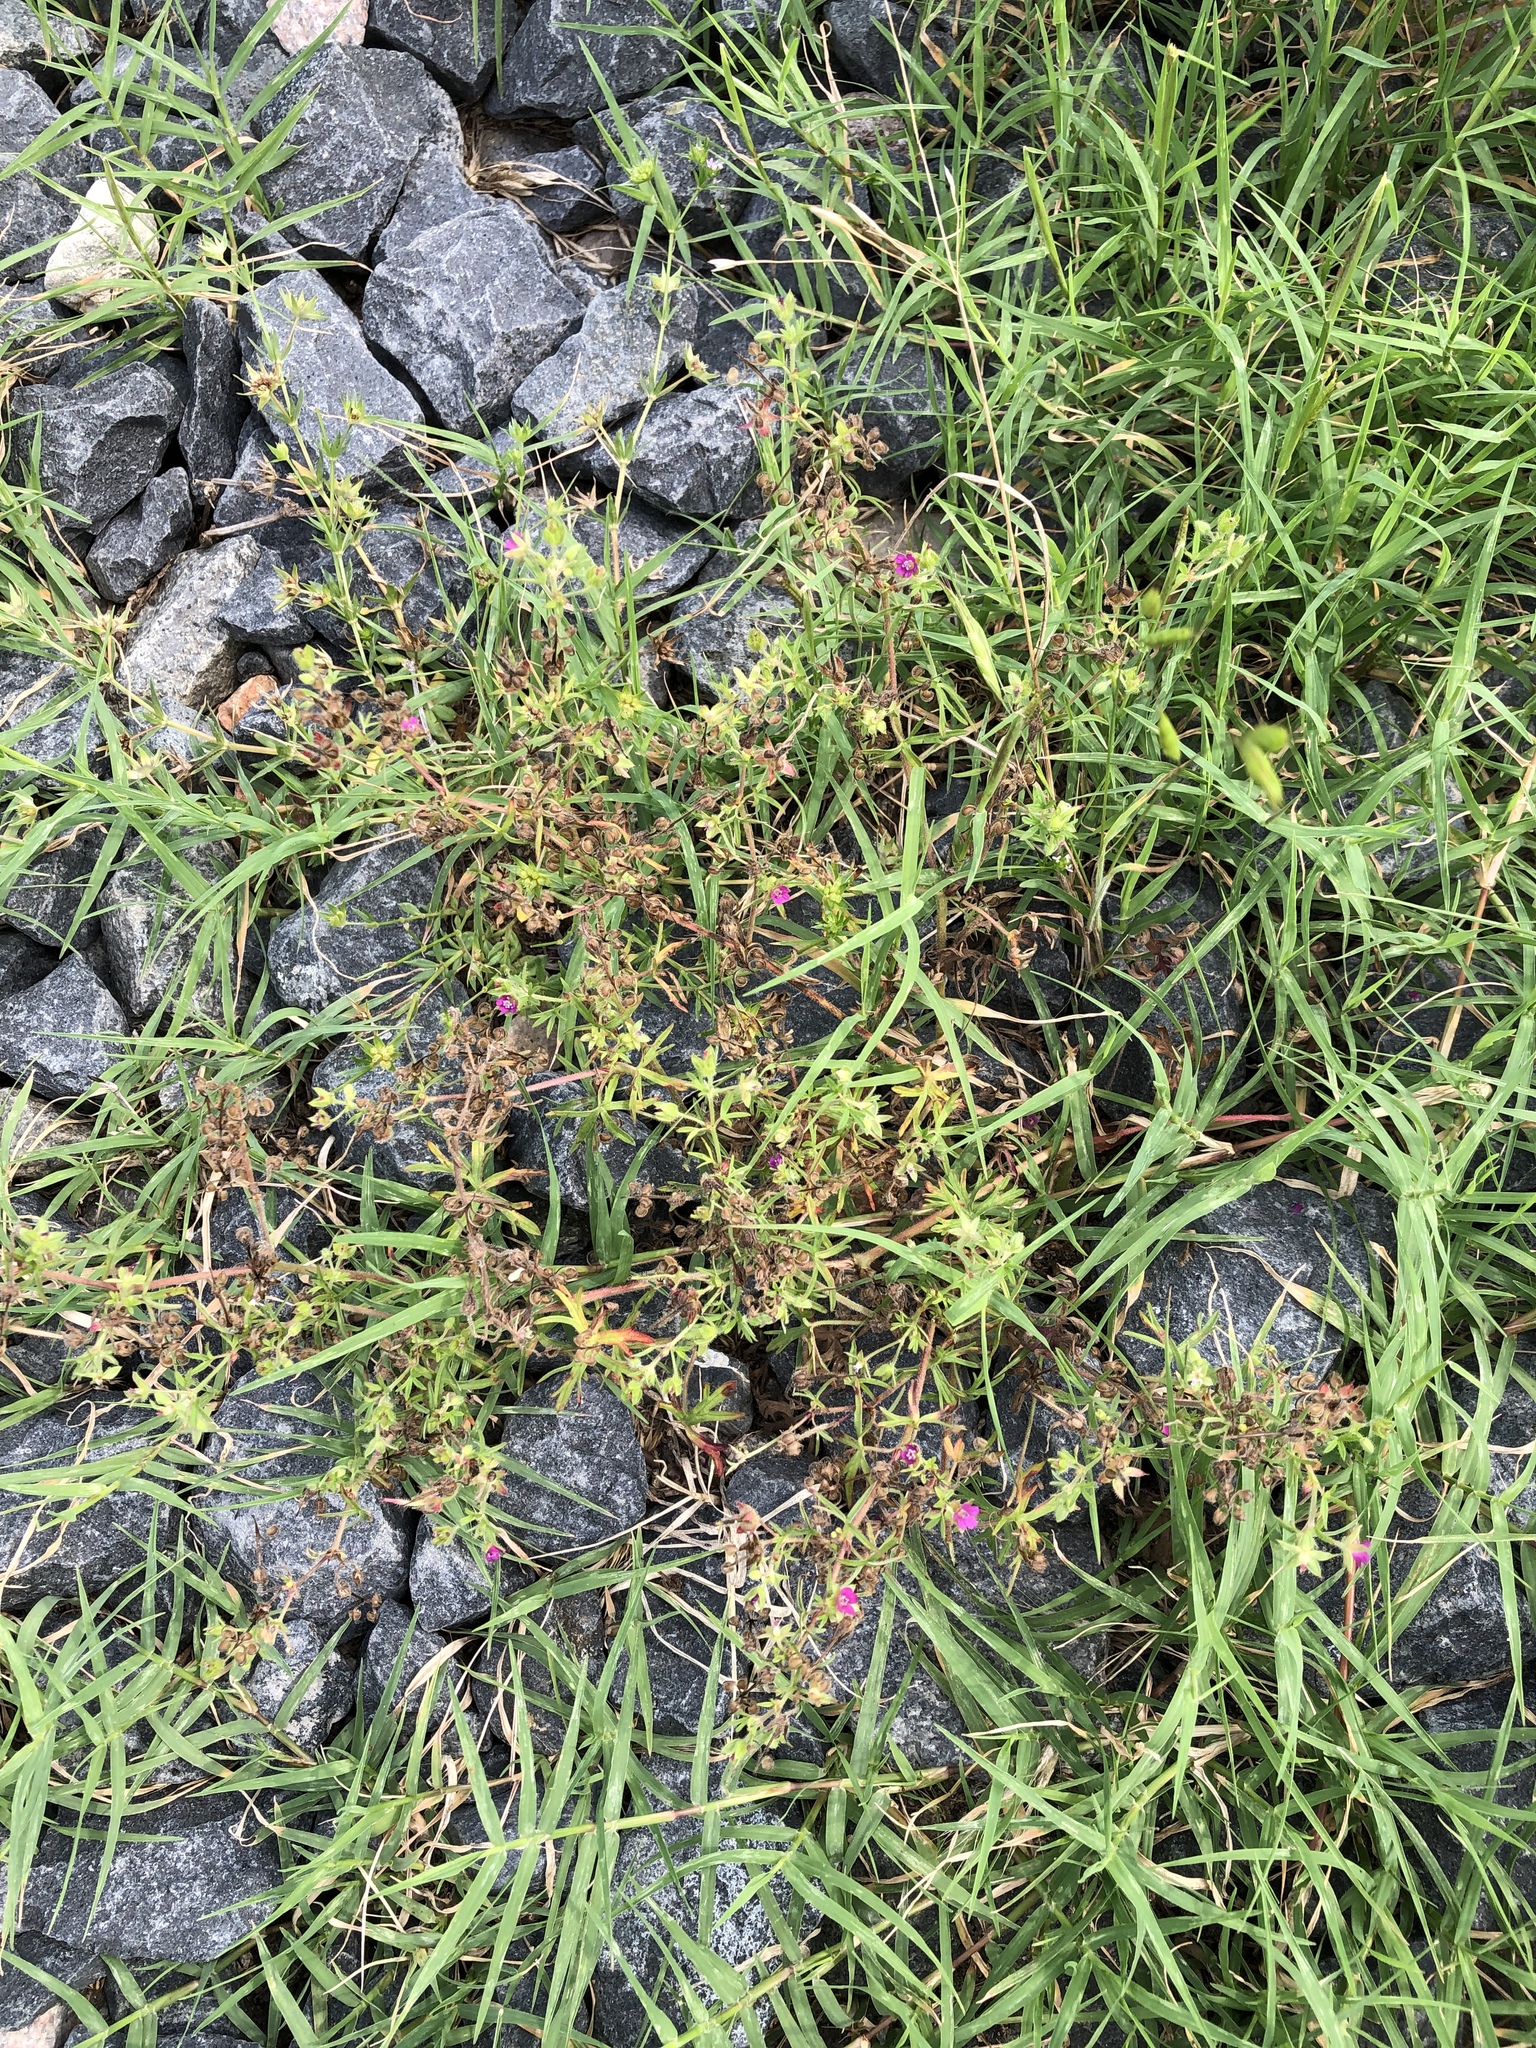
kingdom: Plantae
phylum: Tracheophyta
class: Magnoliopsida
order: Geraniales
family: Geraniaceae
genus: Geranium
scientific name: Geranium dissectum
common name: Cut-leaved crane's-bill
